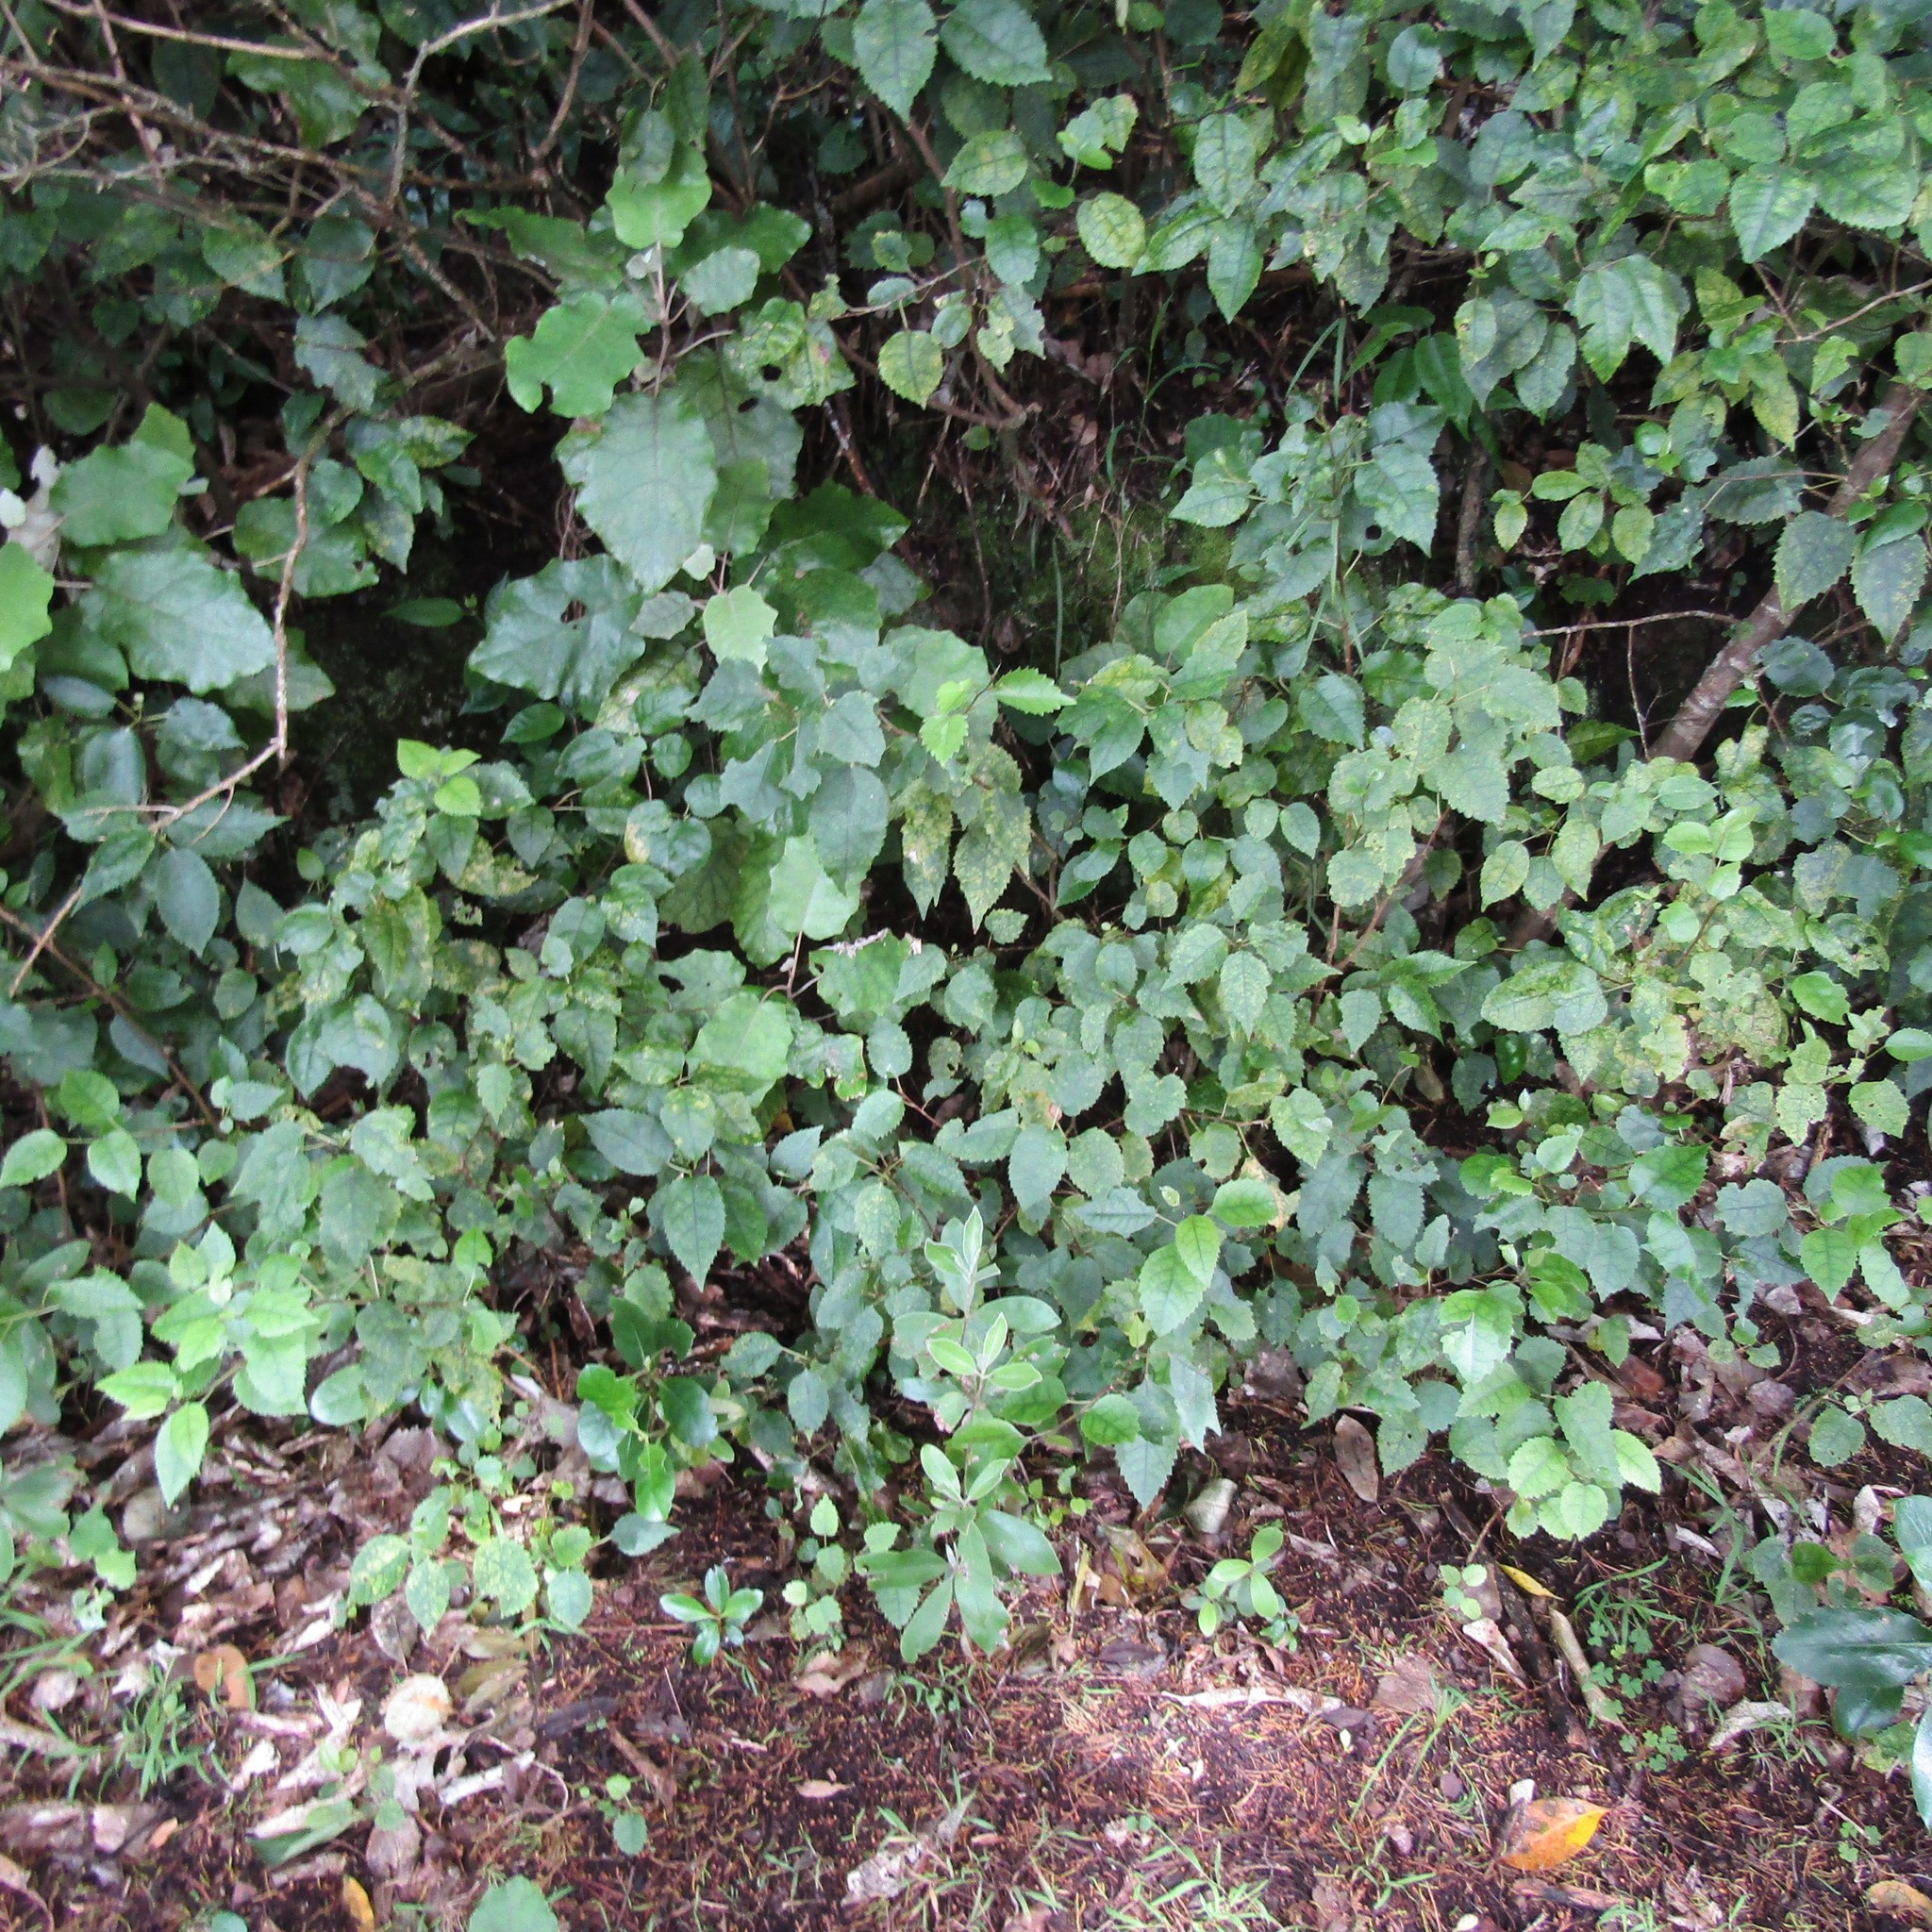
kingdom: Plantae
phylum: Tracheophyta
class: Magnoliopsida
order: Malvales
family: Malvaceae
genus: Hoheria
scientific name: Hoheria populnea
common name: Lacebark
